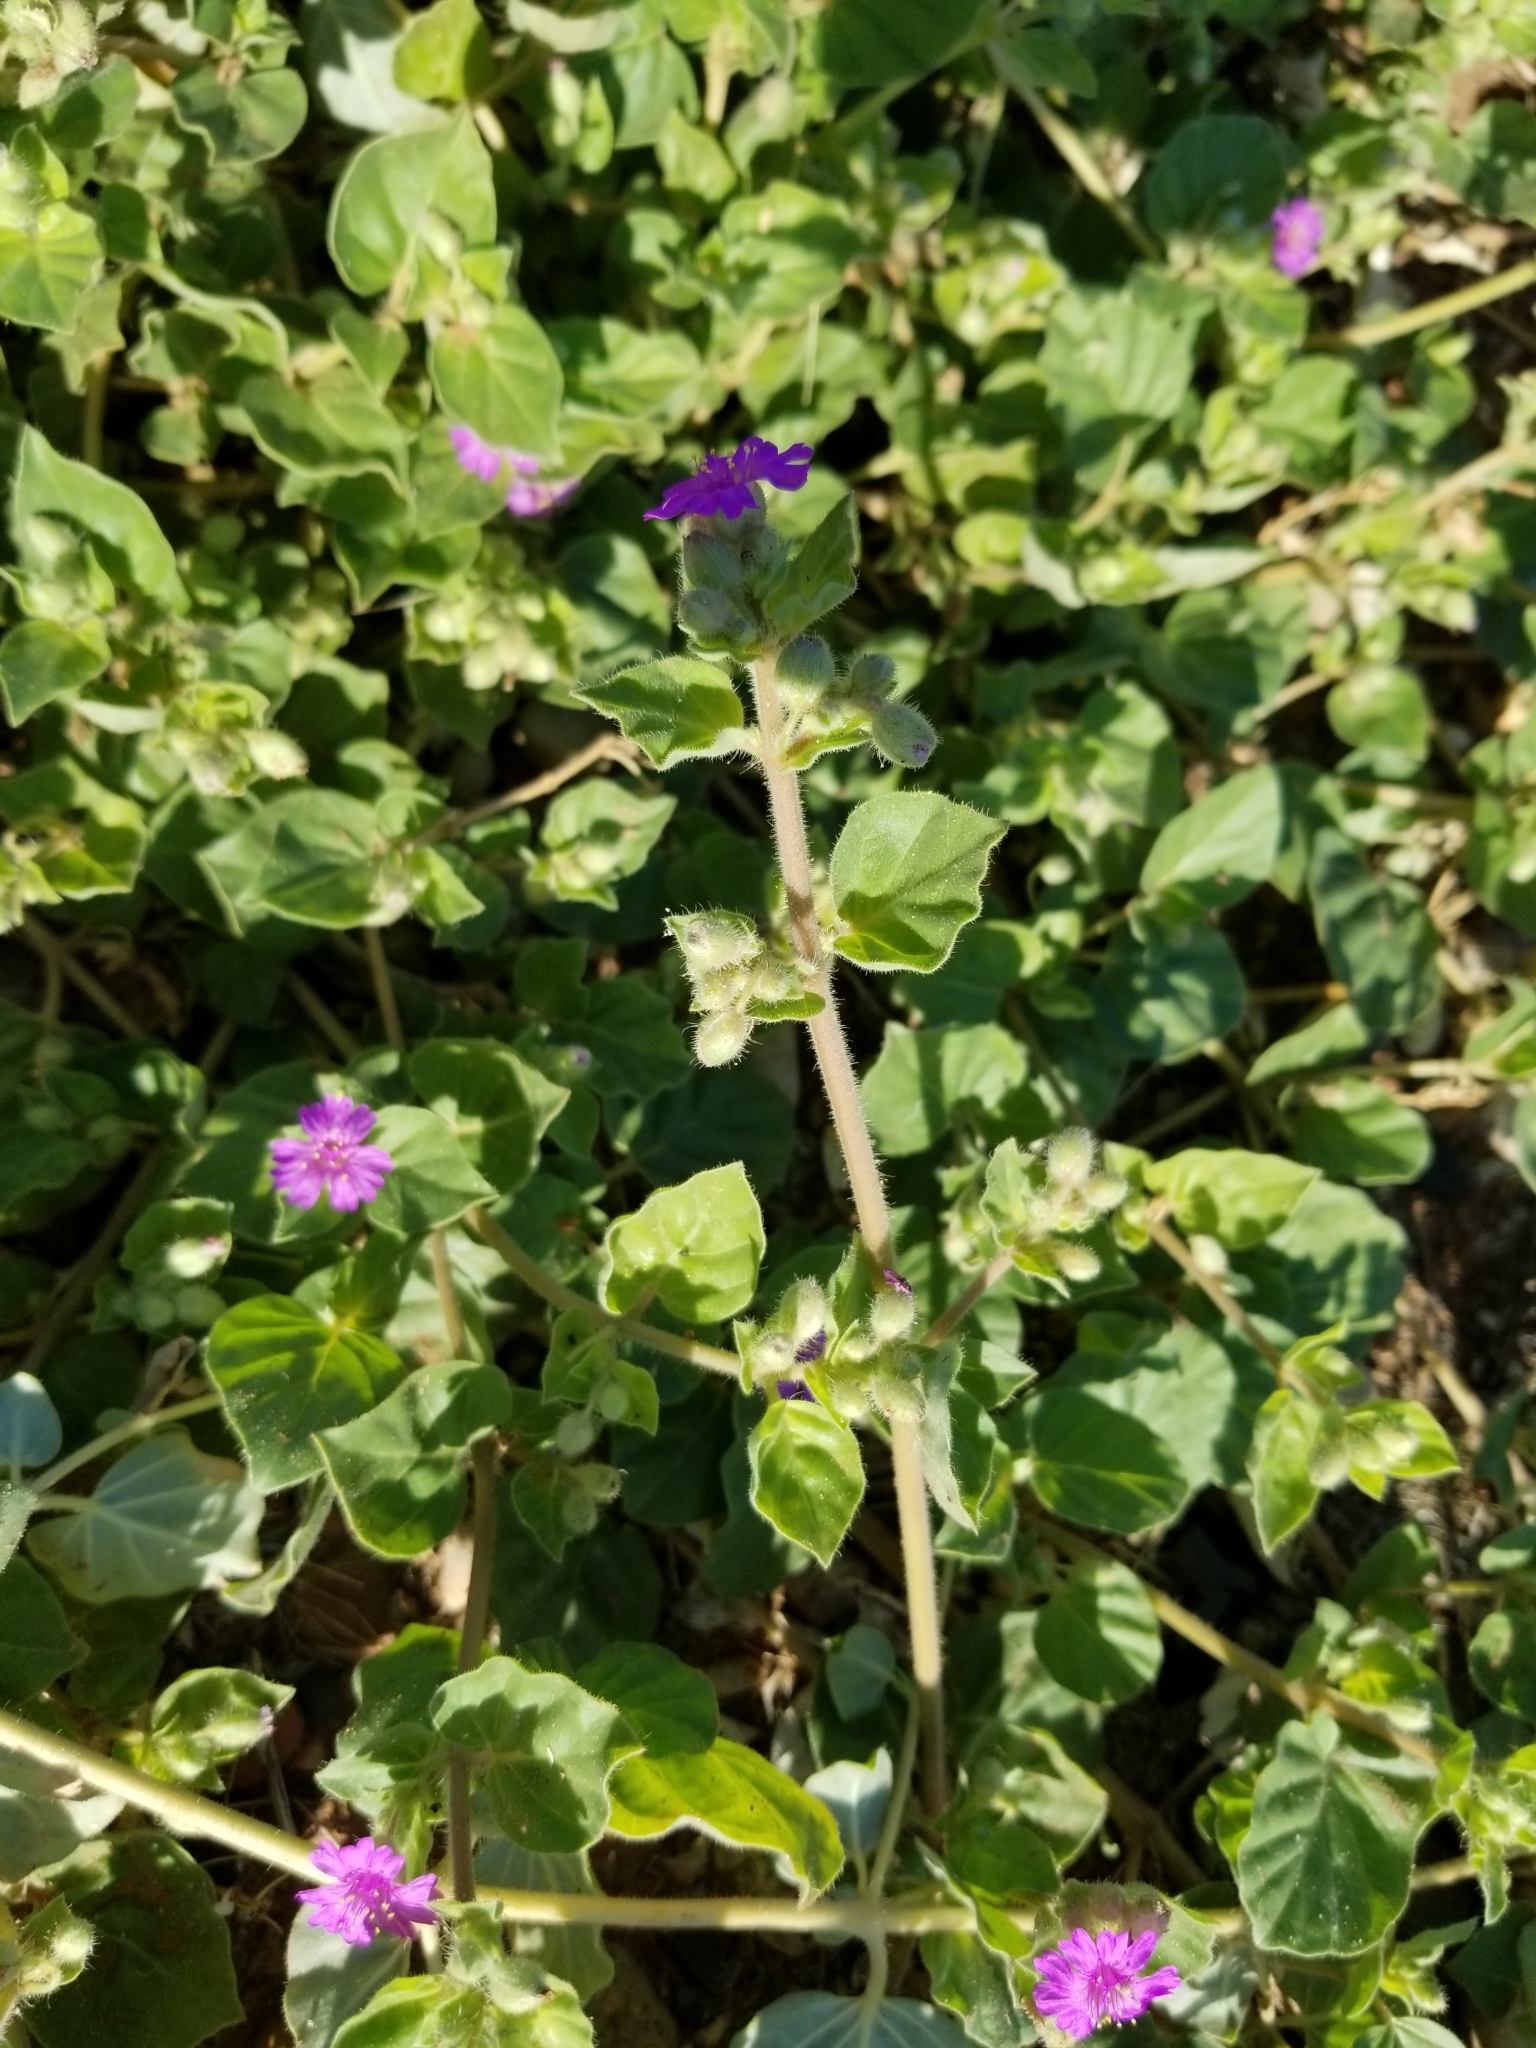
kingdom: Plantae
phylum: Tracheophyta
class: Magnoliopsida
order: Caryophyllales
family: Nyctaginaceae
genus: Allionia
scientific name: Allionia incarnata
